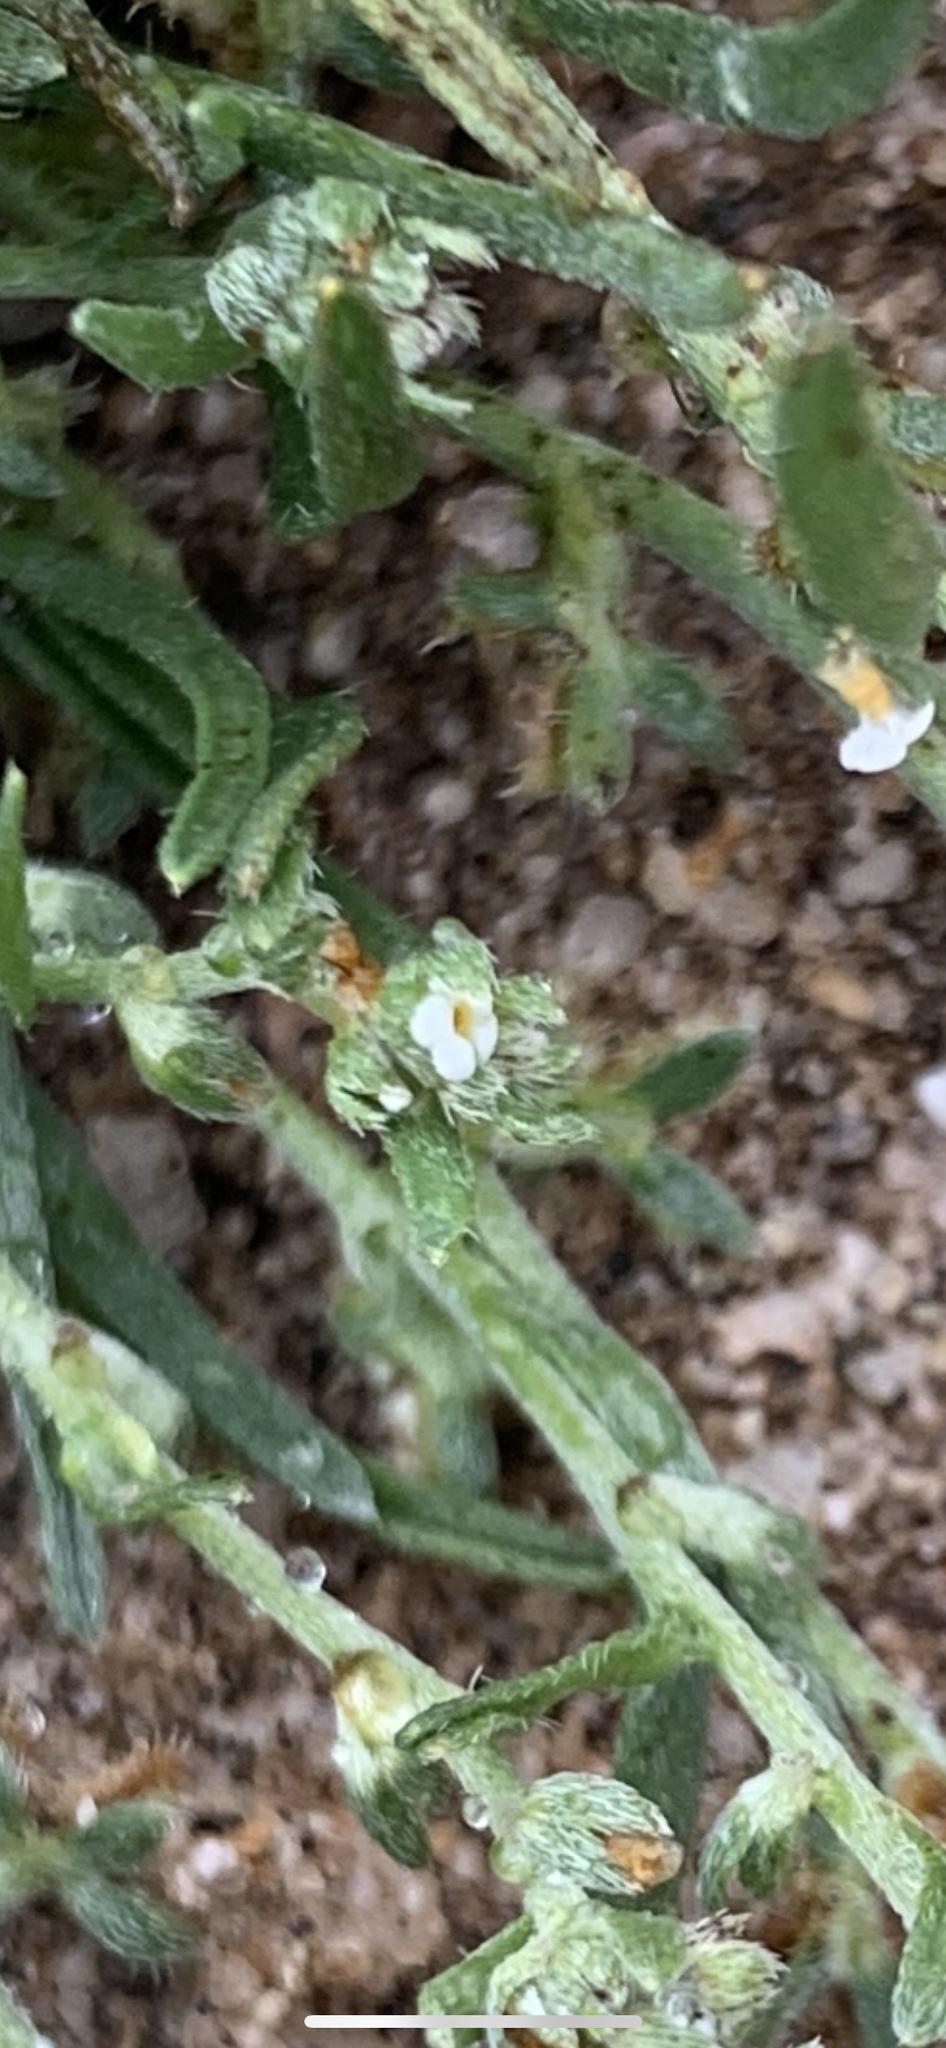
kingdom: Plantae
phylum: Tracheophyta
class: Magnoliopsida
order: Boraginales
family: Boraginaceae
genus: Pectocarya
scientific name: Pectocarya heterocarpa
